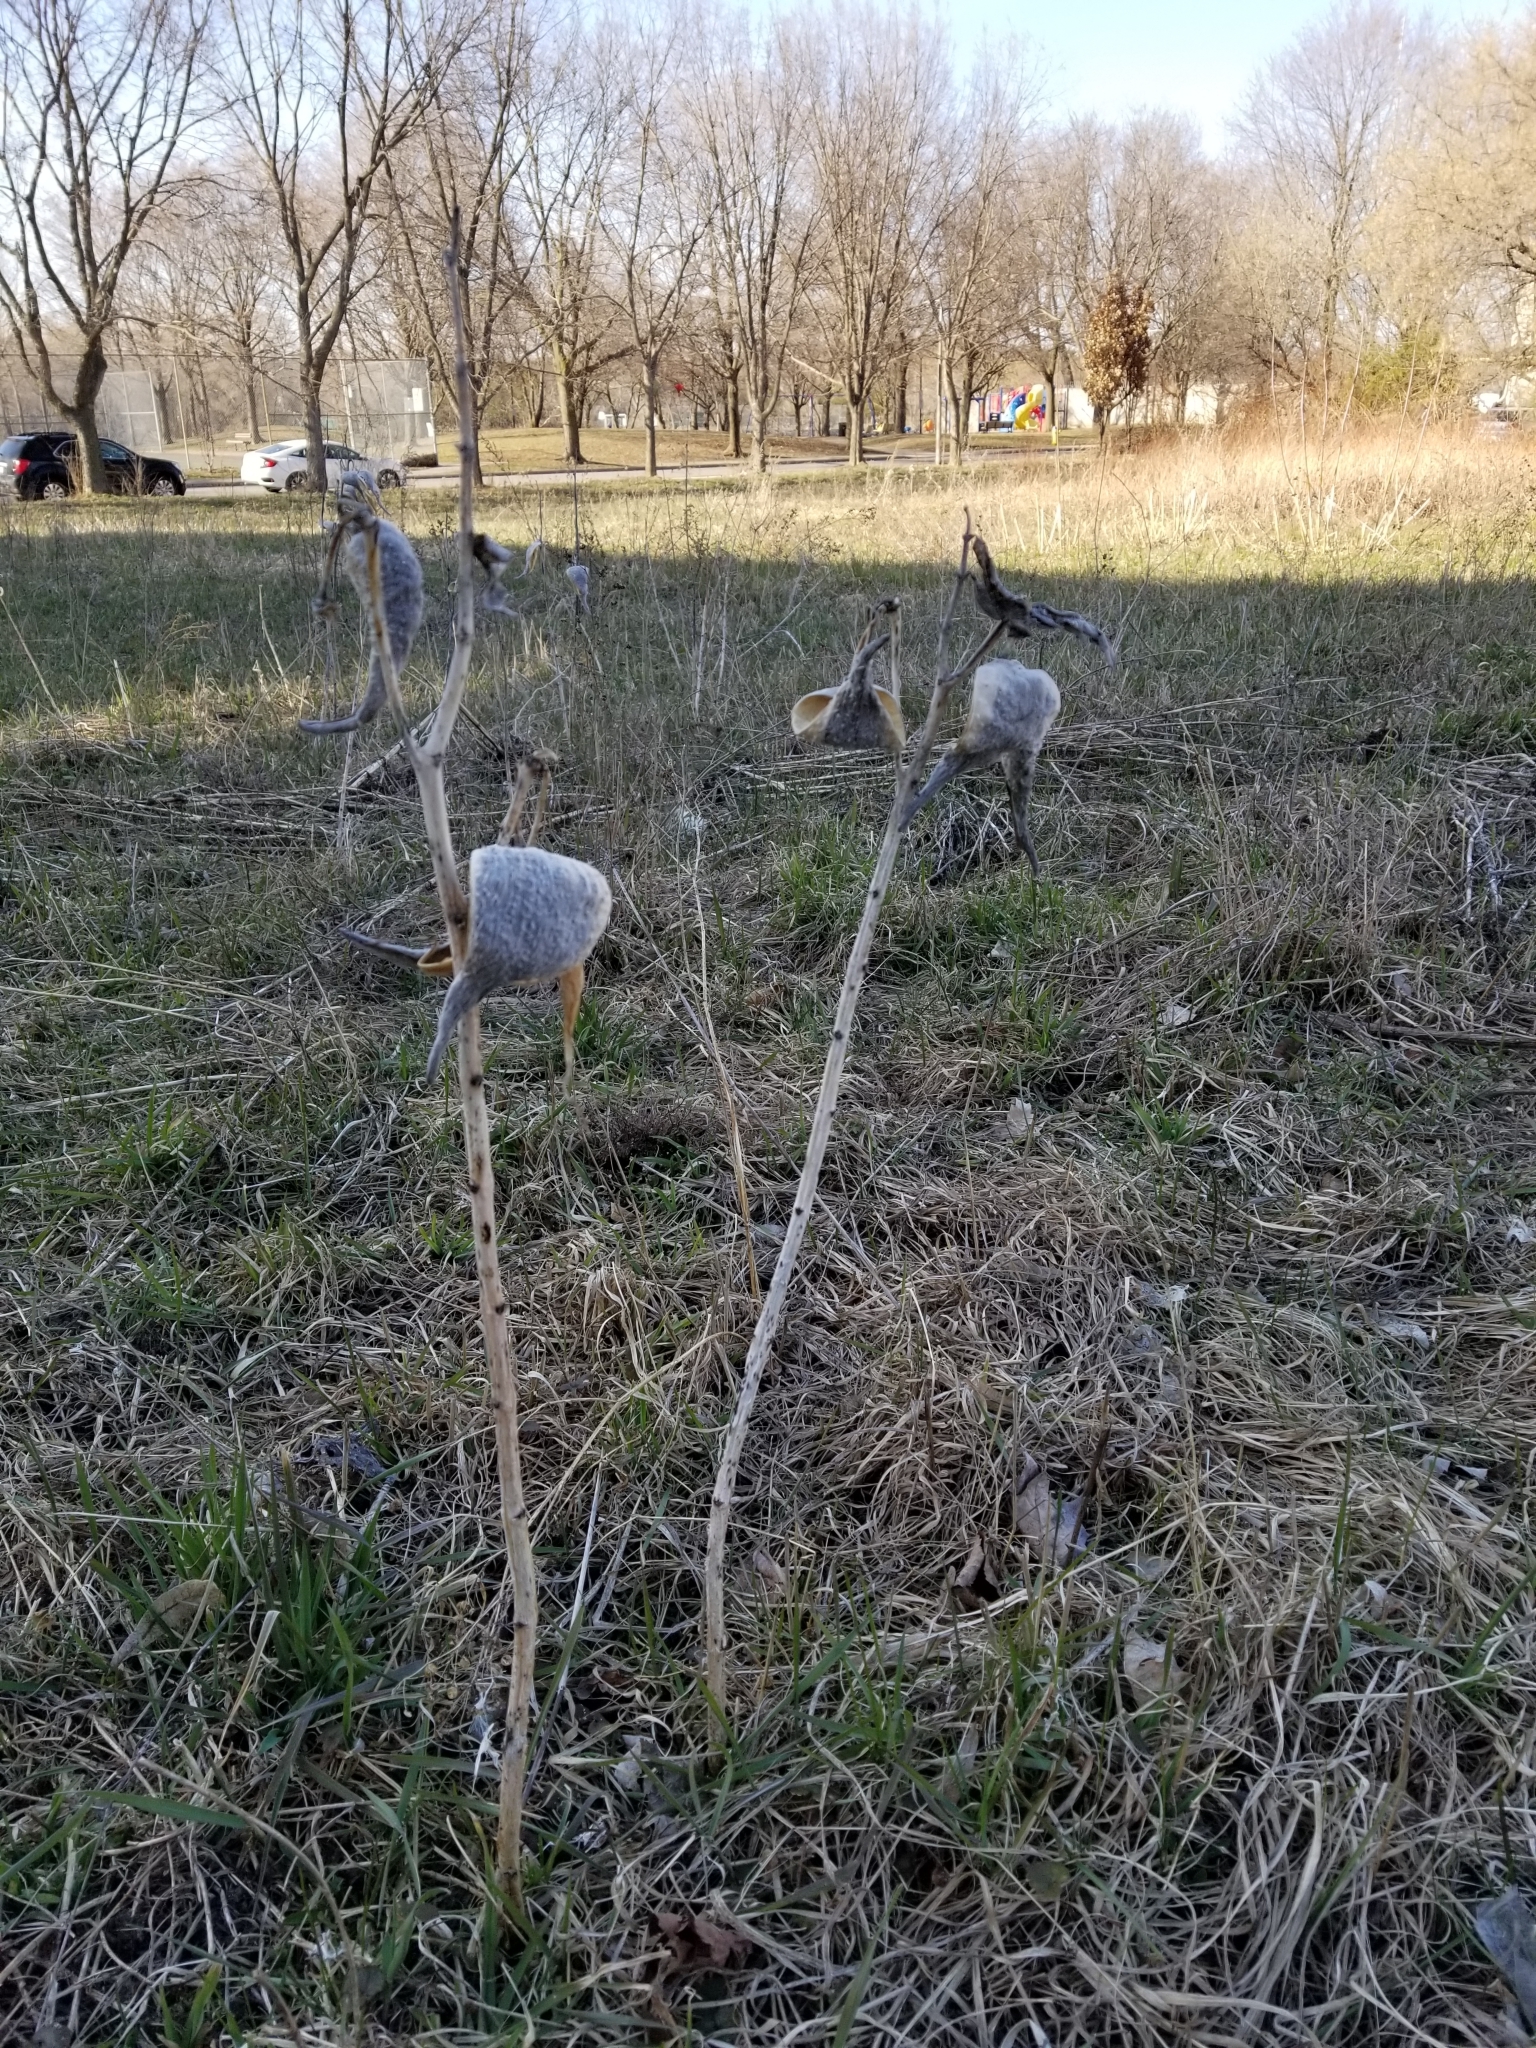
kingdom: Plantae
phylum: Tracheophyta
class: Magnoliopsida
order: Gentianales
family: Apocynaceae
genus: Asclepias
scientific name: Asclepias syriaca
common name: Common milkweed
